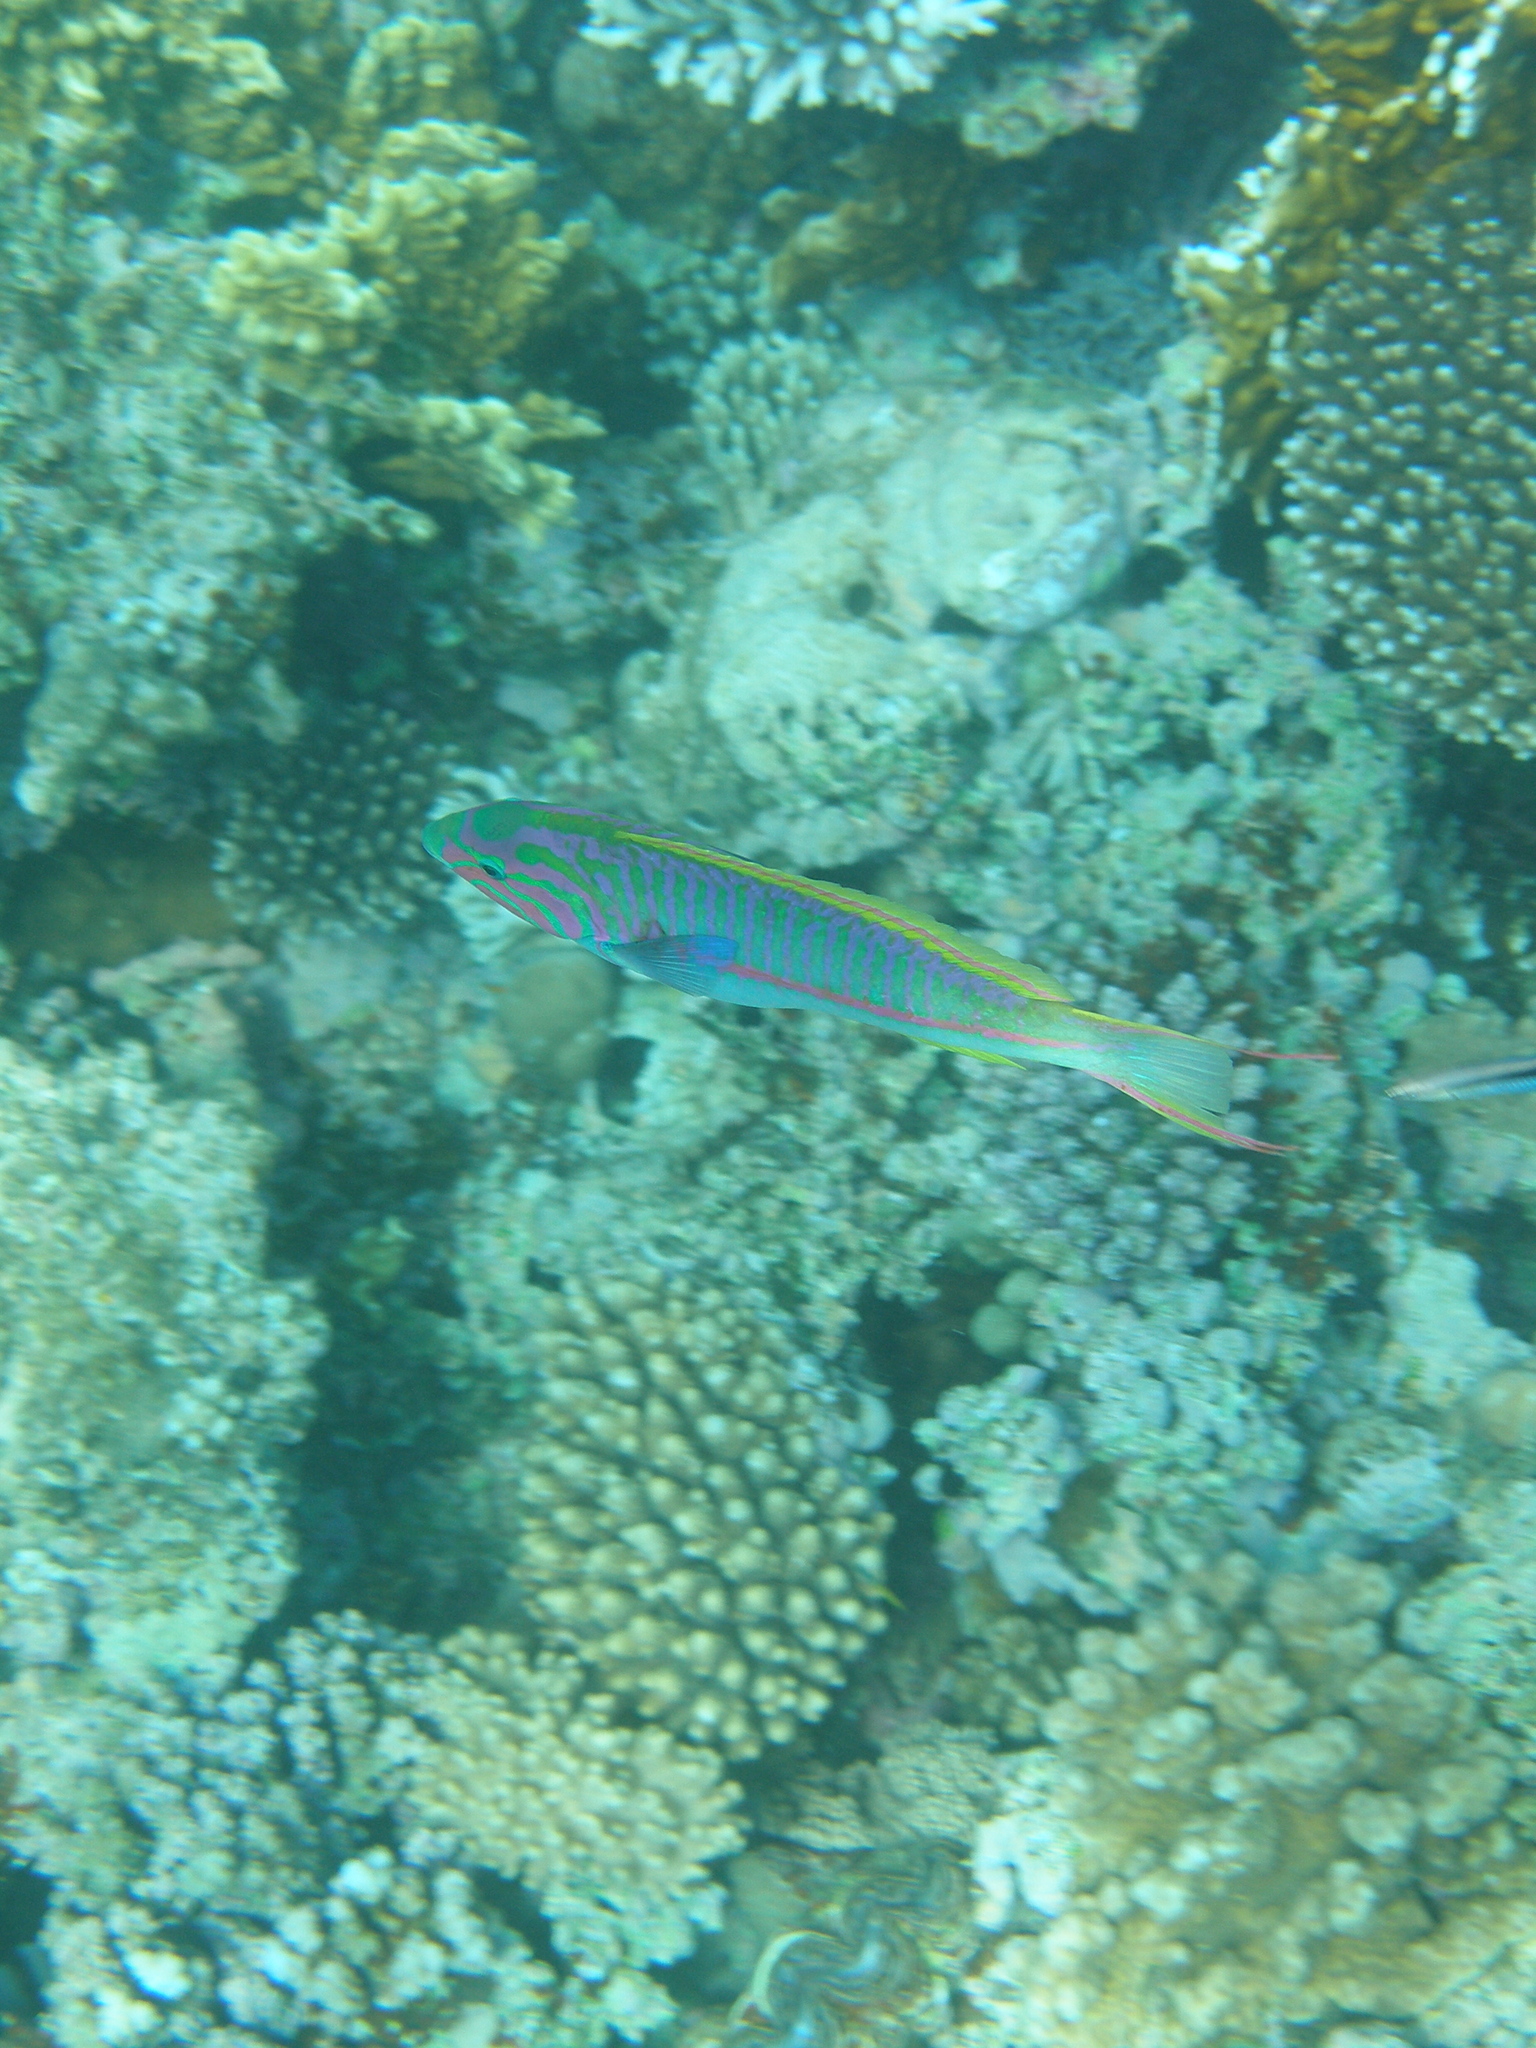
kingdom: Animalia
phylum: Chordata
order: Perciformes
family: Labridae
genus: Thalassoma
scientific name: Thalassoma rueppellii
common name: Klunzinger's wrasse
